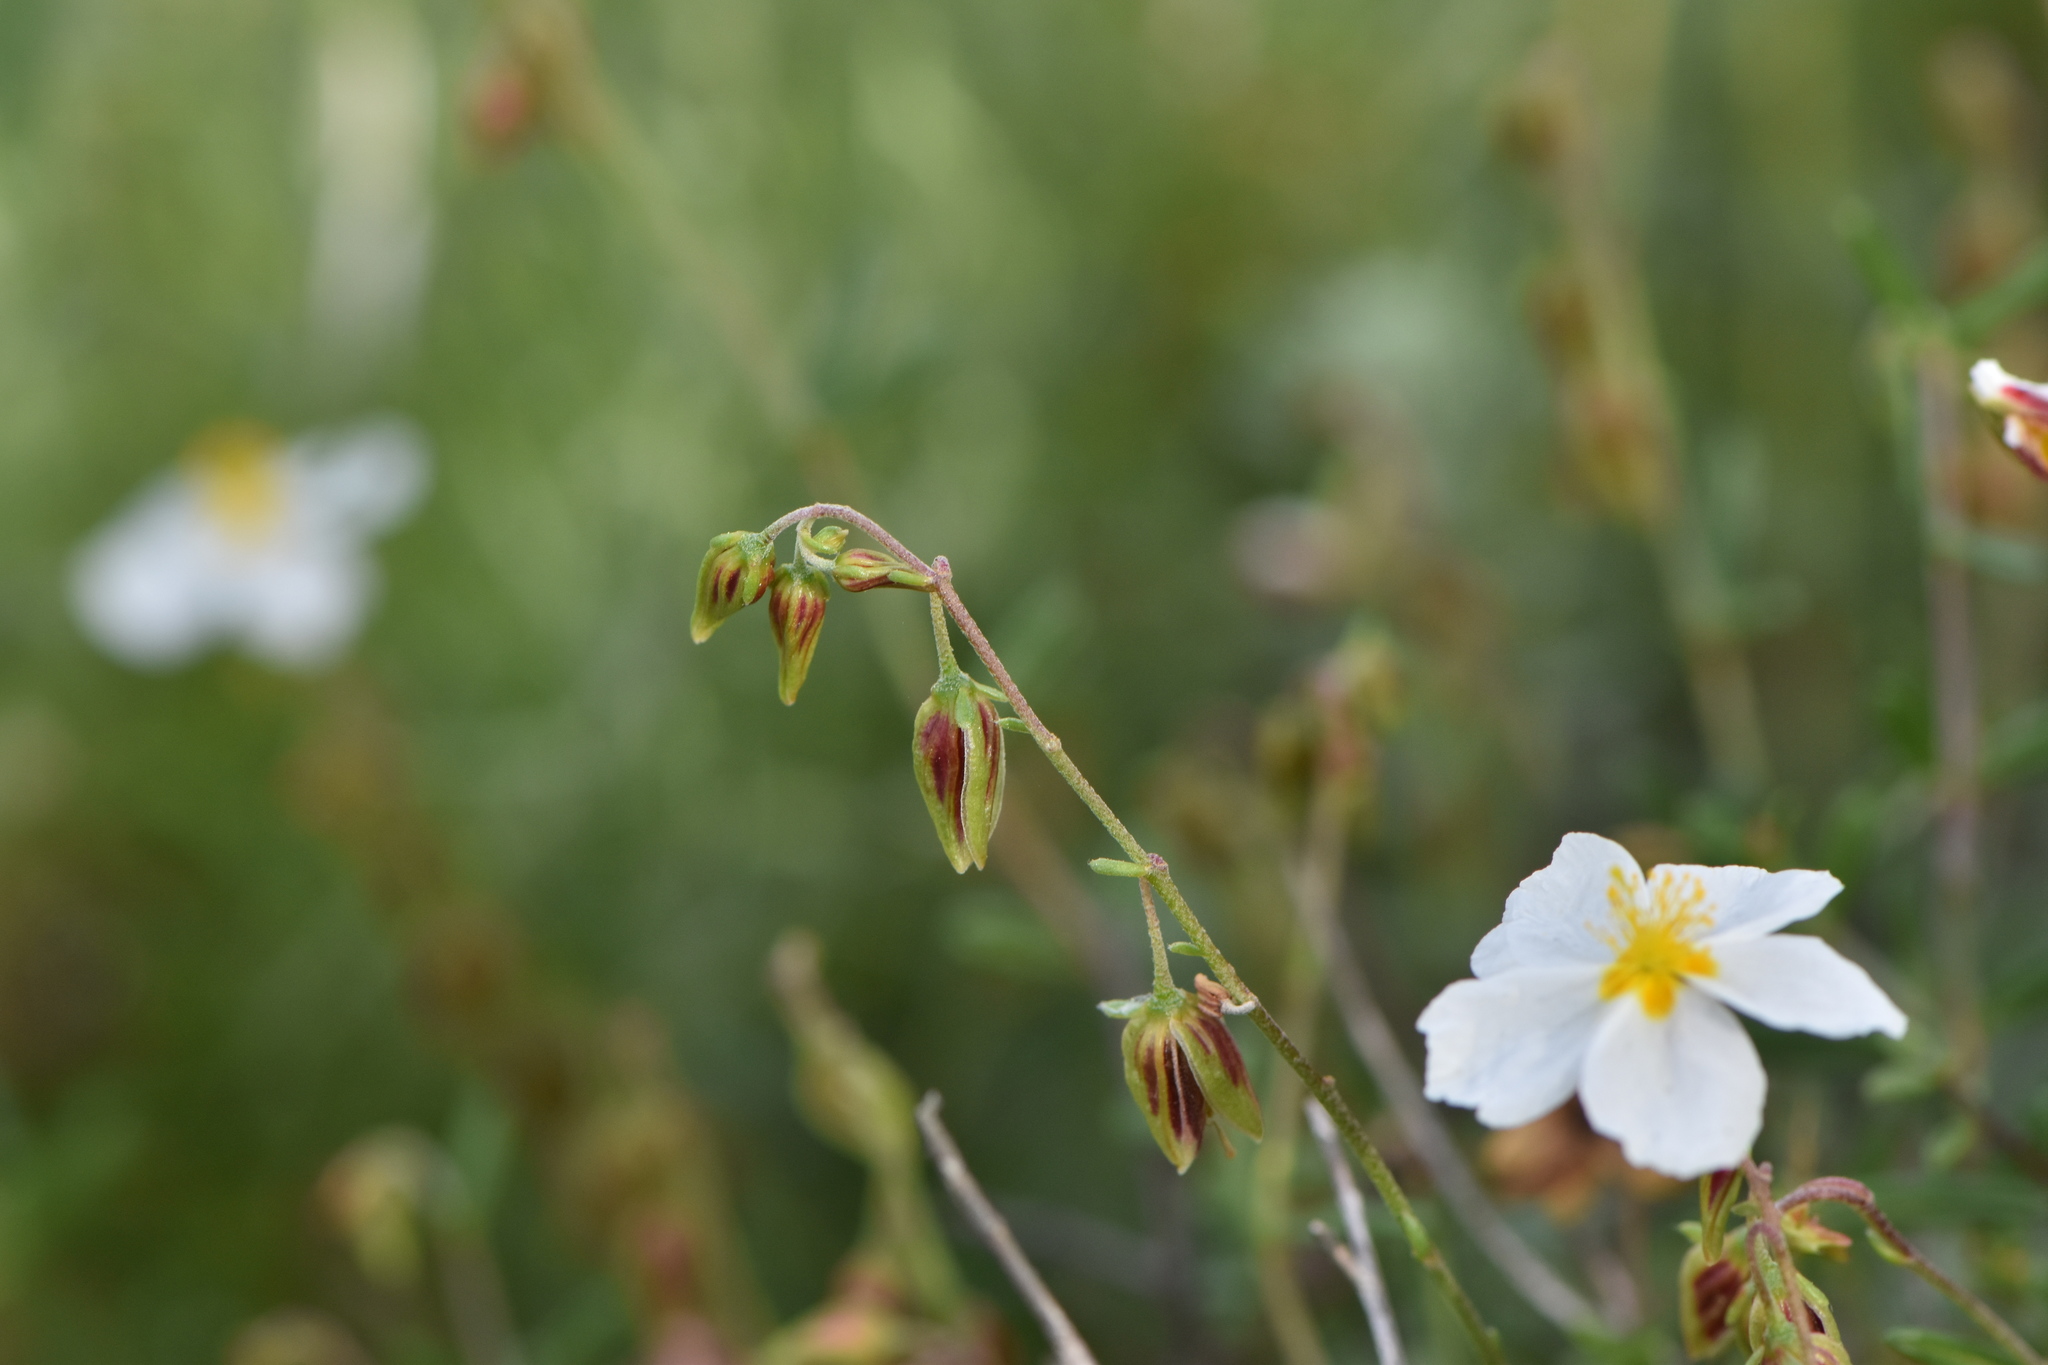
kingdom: Plantae
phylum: Tracheophyta
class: Magnoliopsida
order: Malvales
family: Cistaceae
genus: Helianthemum
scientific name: Helianthemum almeriense
